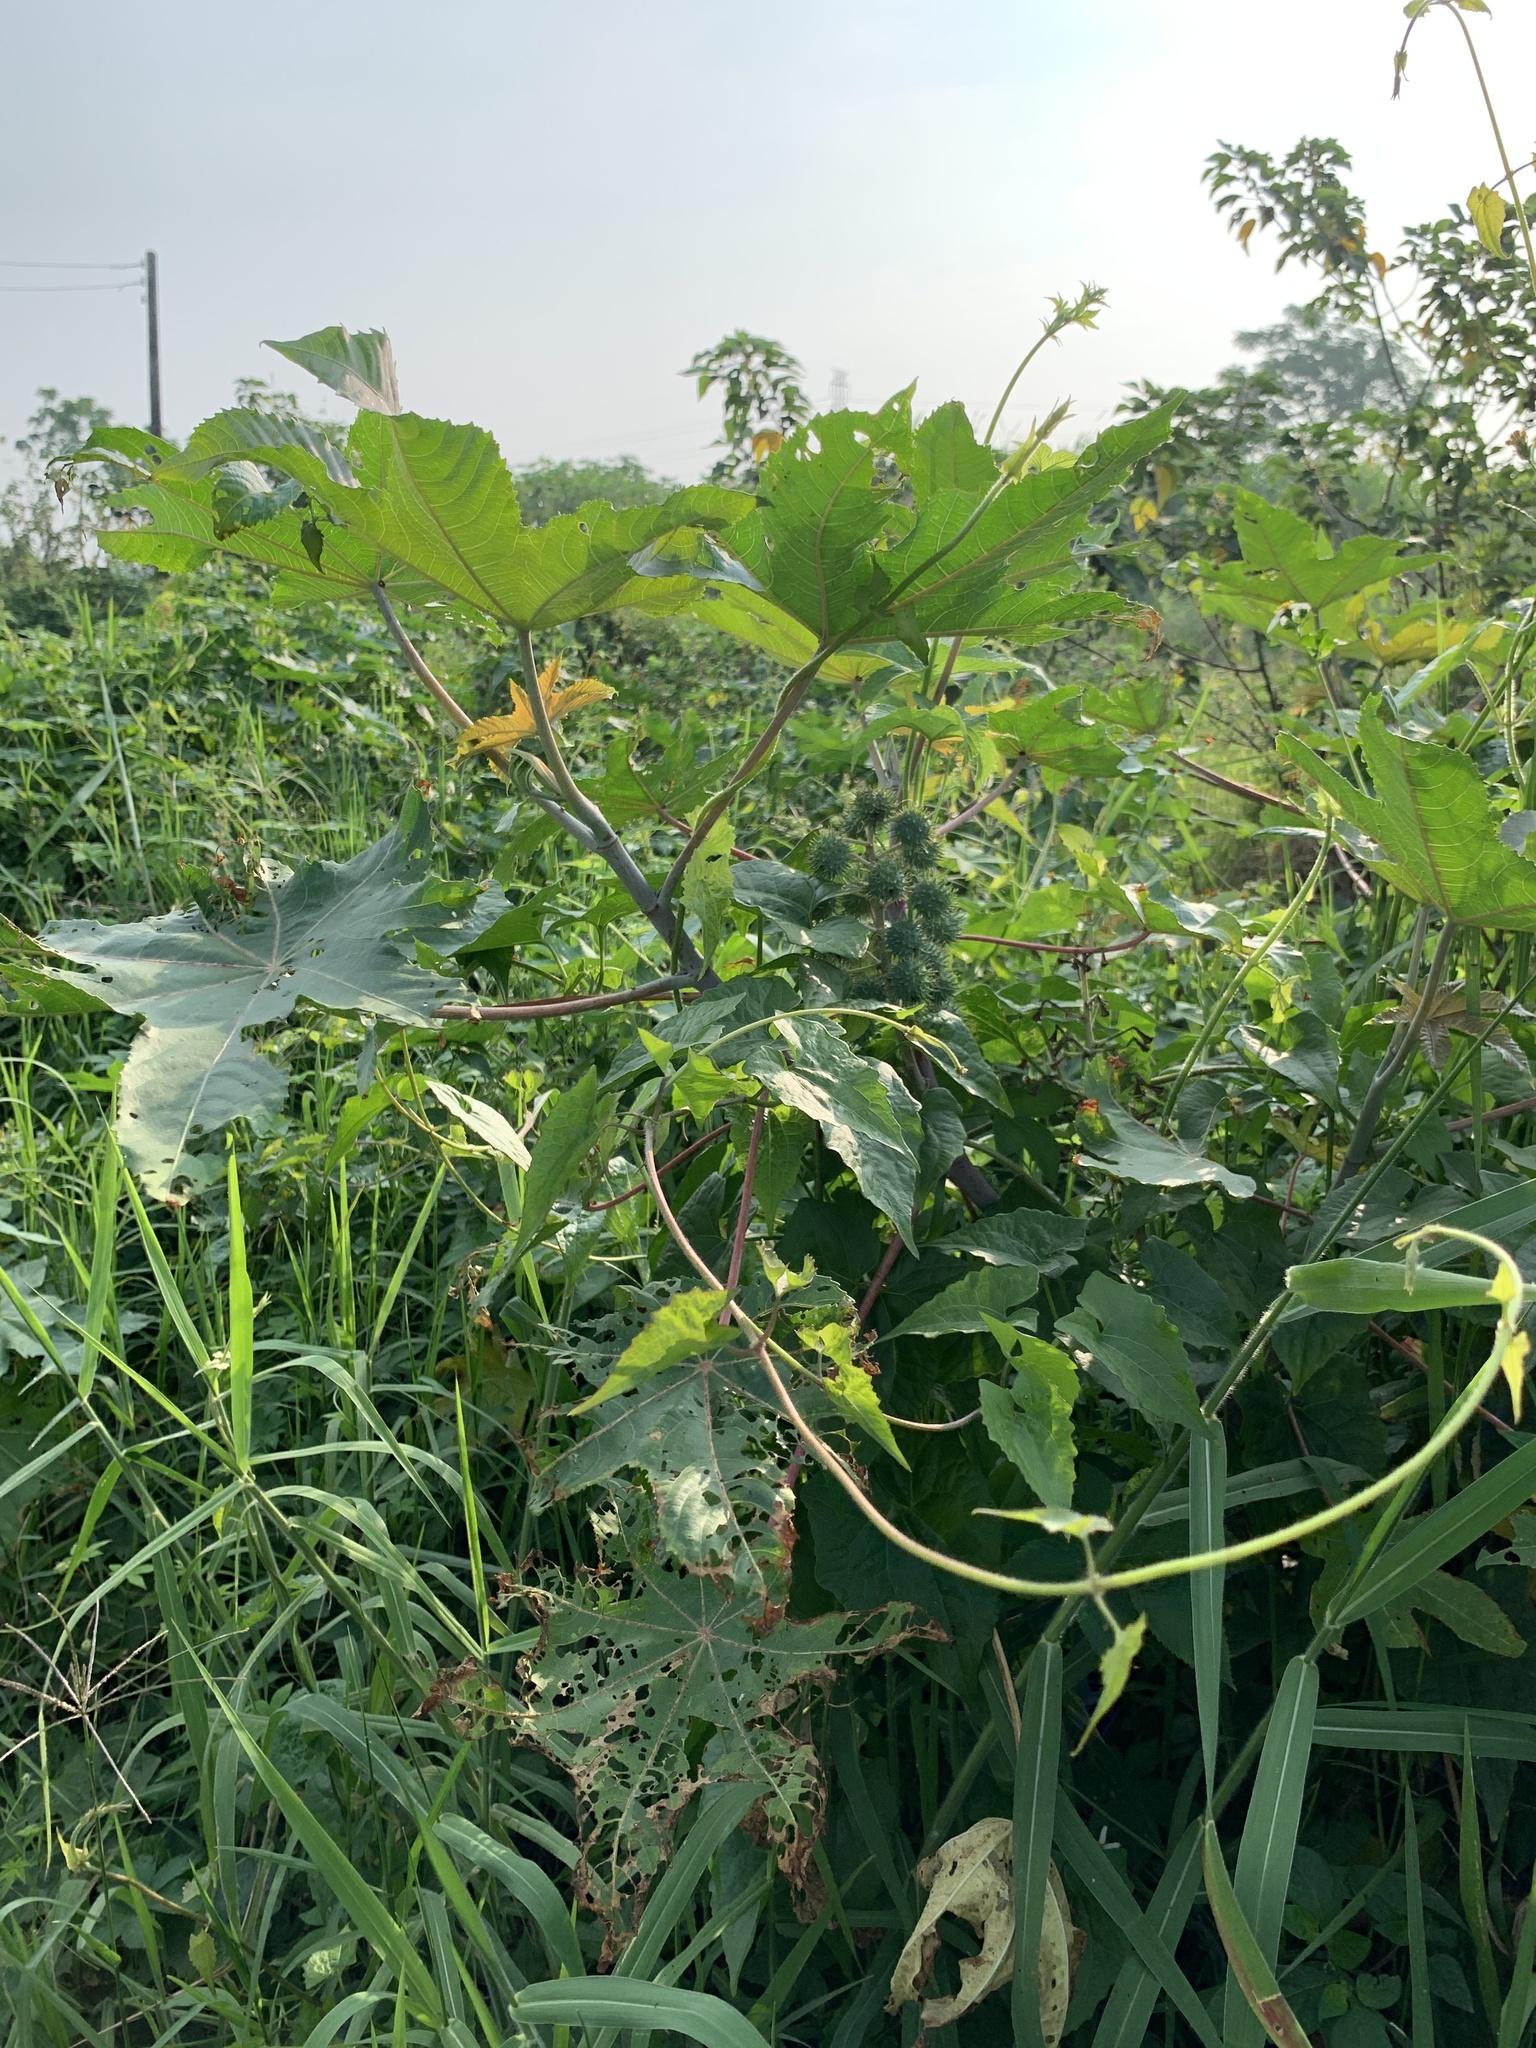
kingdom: Plantae
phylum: Tracheophyta
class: Magnoliopsida
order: Malpighiales
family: Euphorbiaceae
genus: Ricinus
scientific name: Ricinus communis
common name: Castor-oil-plant
